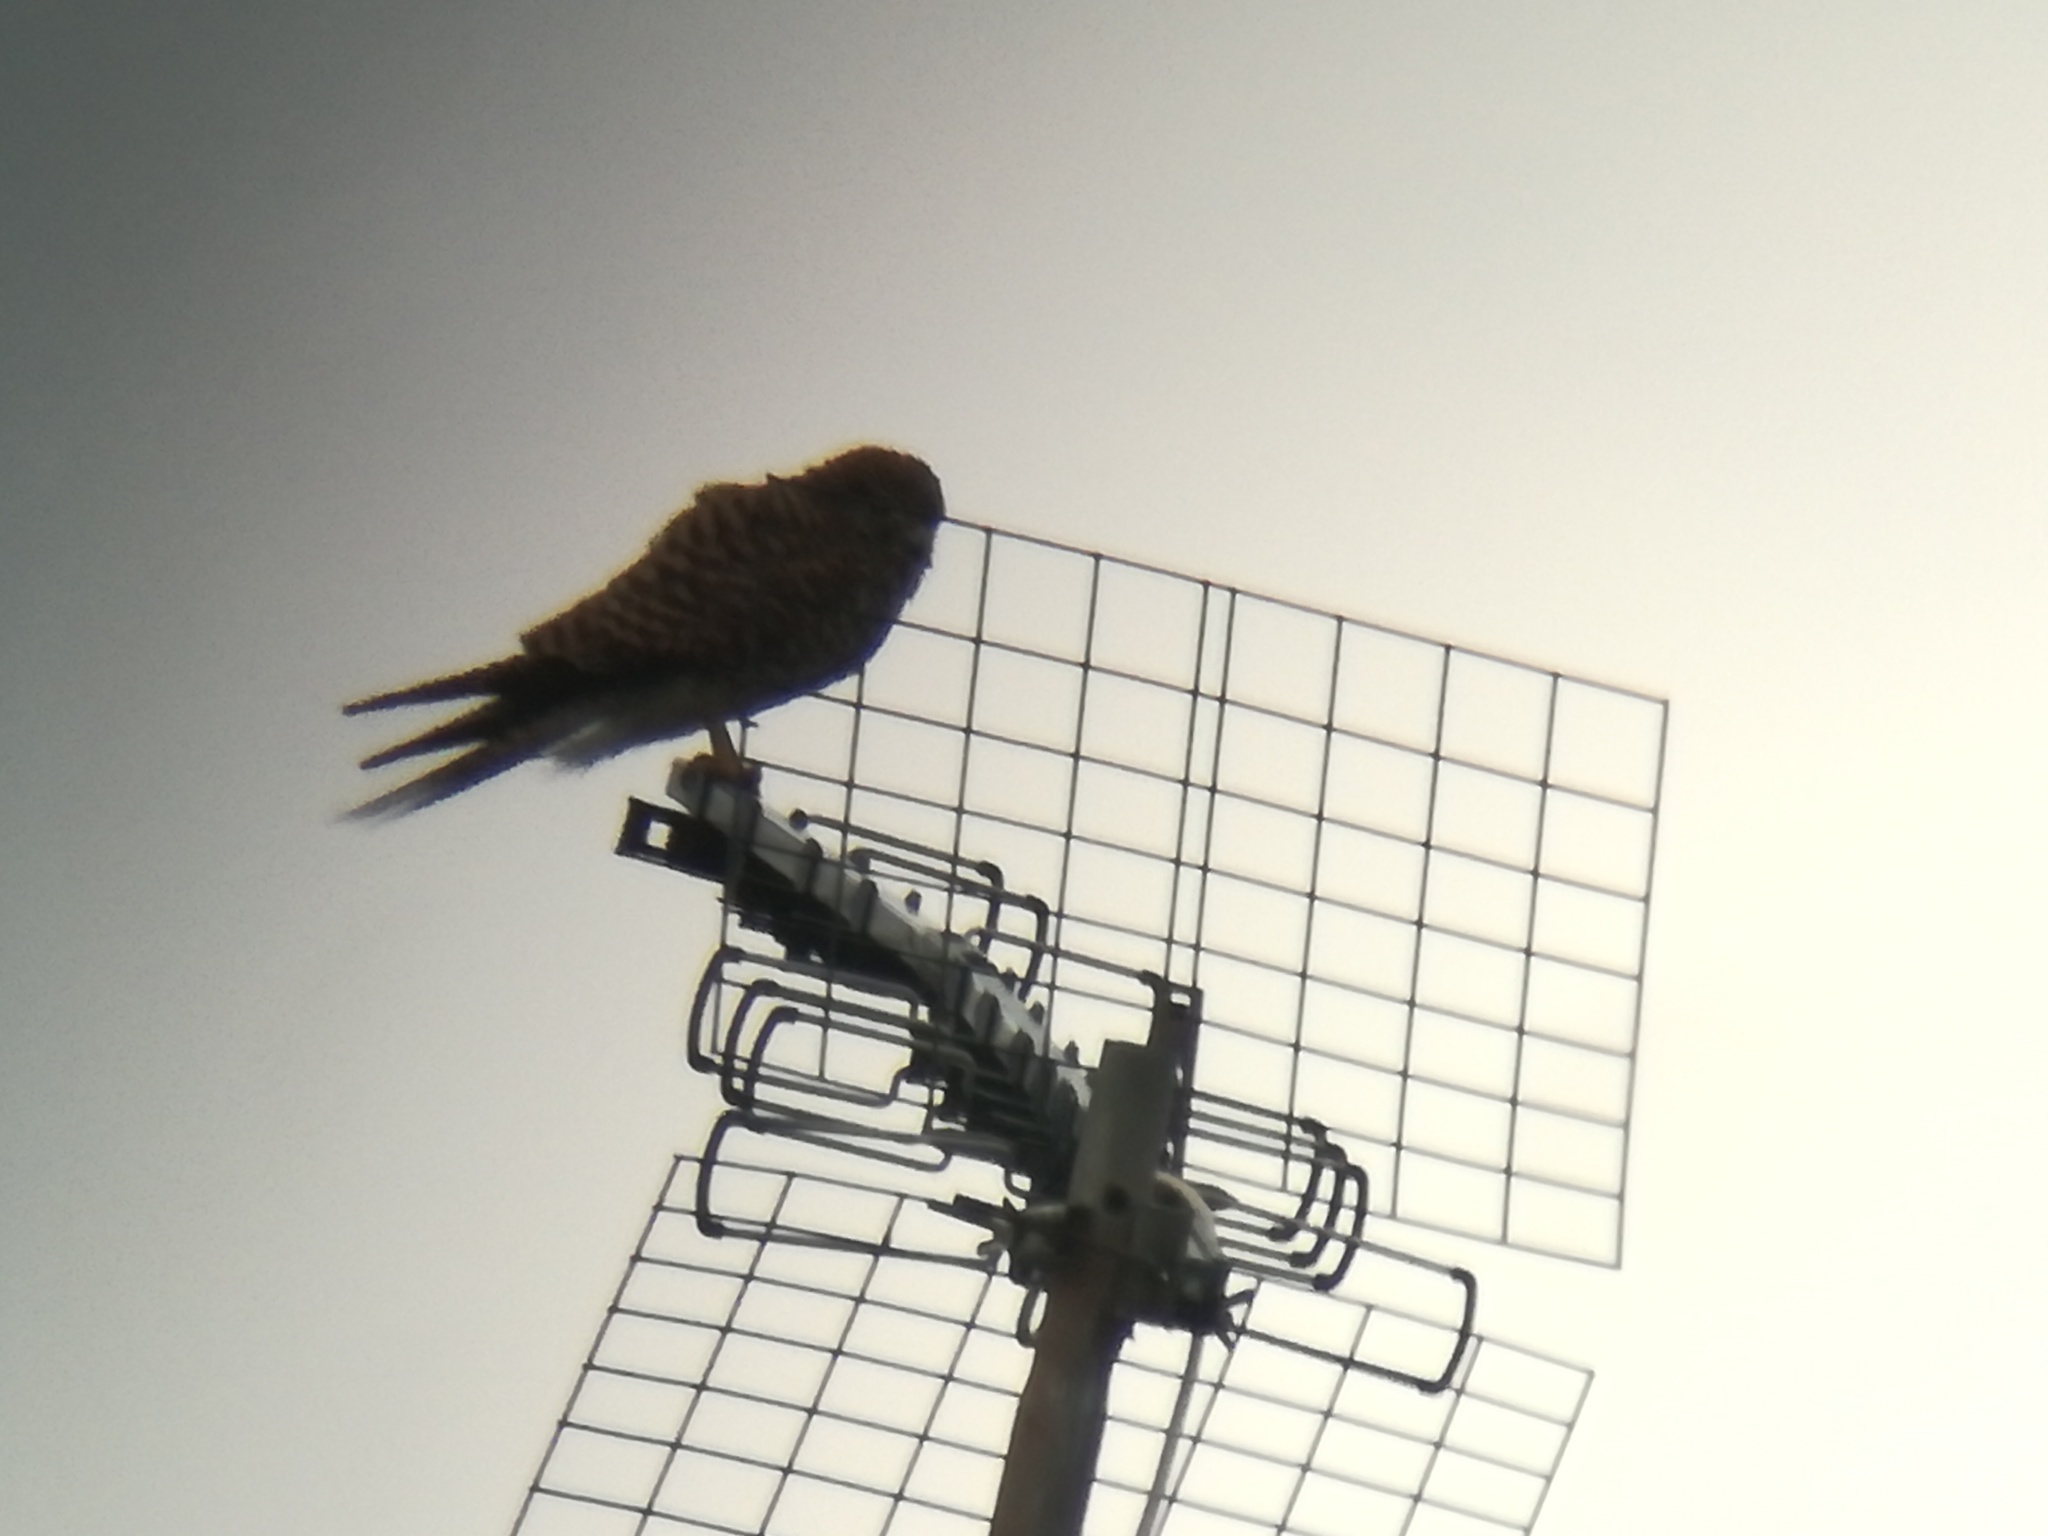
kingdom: Animalia
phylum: Chordata
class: Aves
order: Falconiformes
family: Falconidae
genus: Falco
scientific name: Falco tinnunculus
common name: Common kestrel
